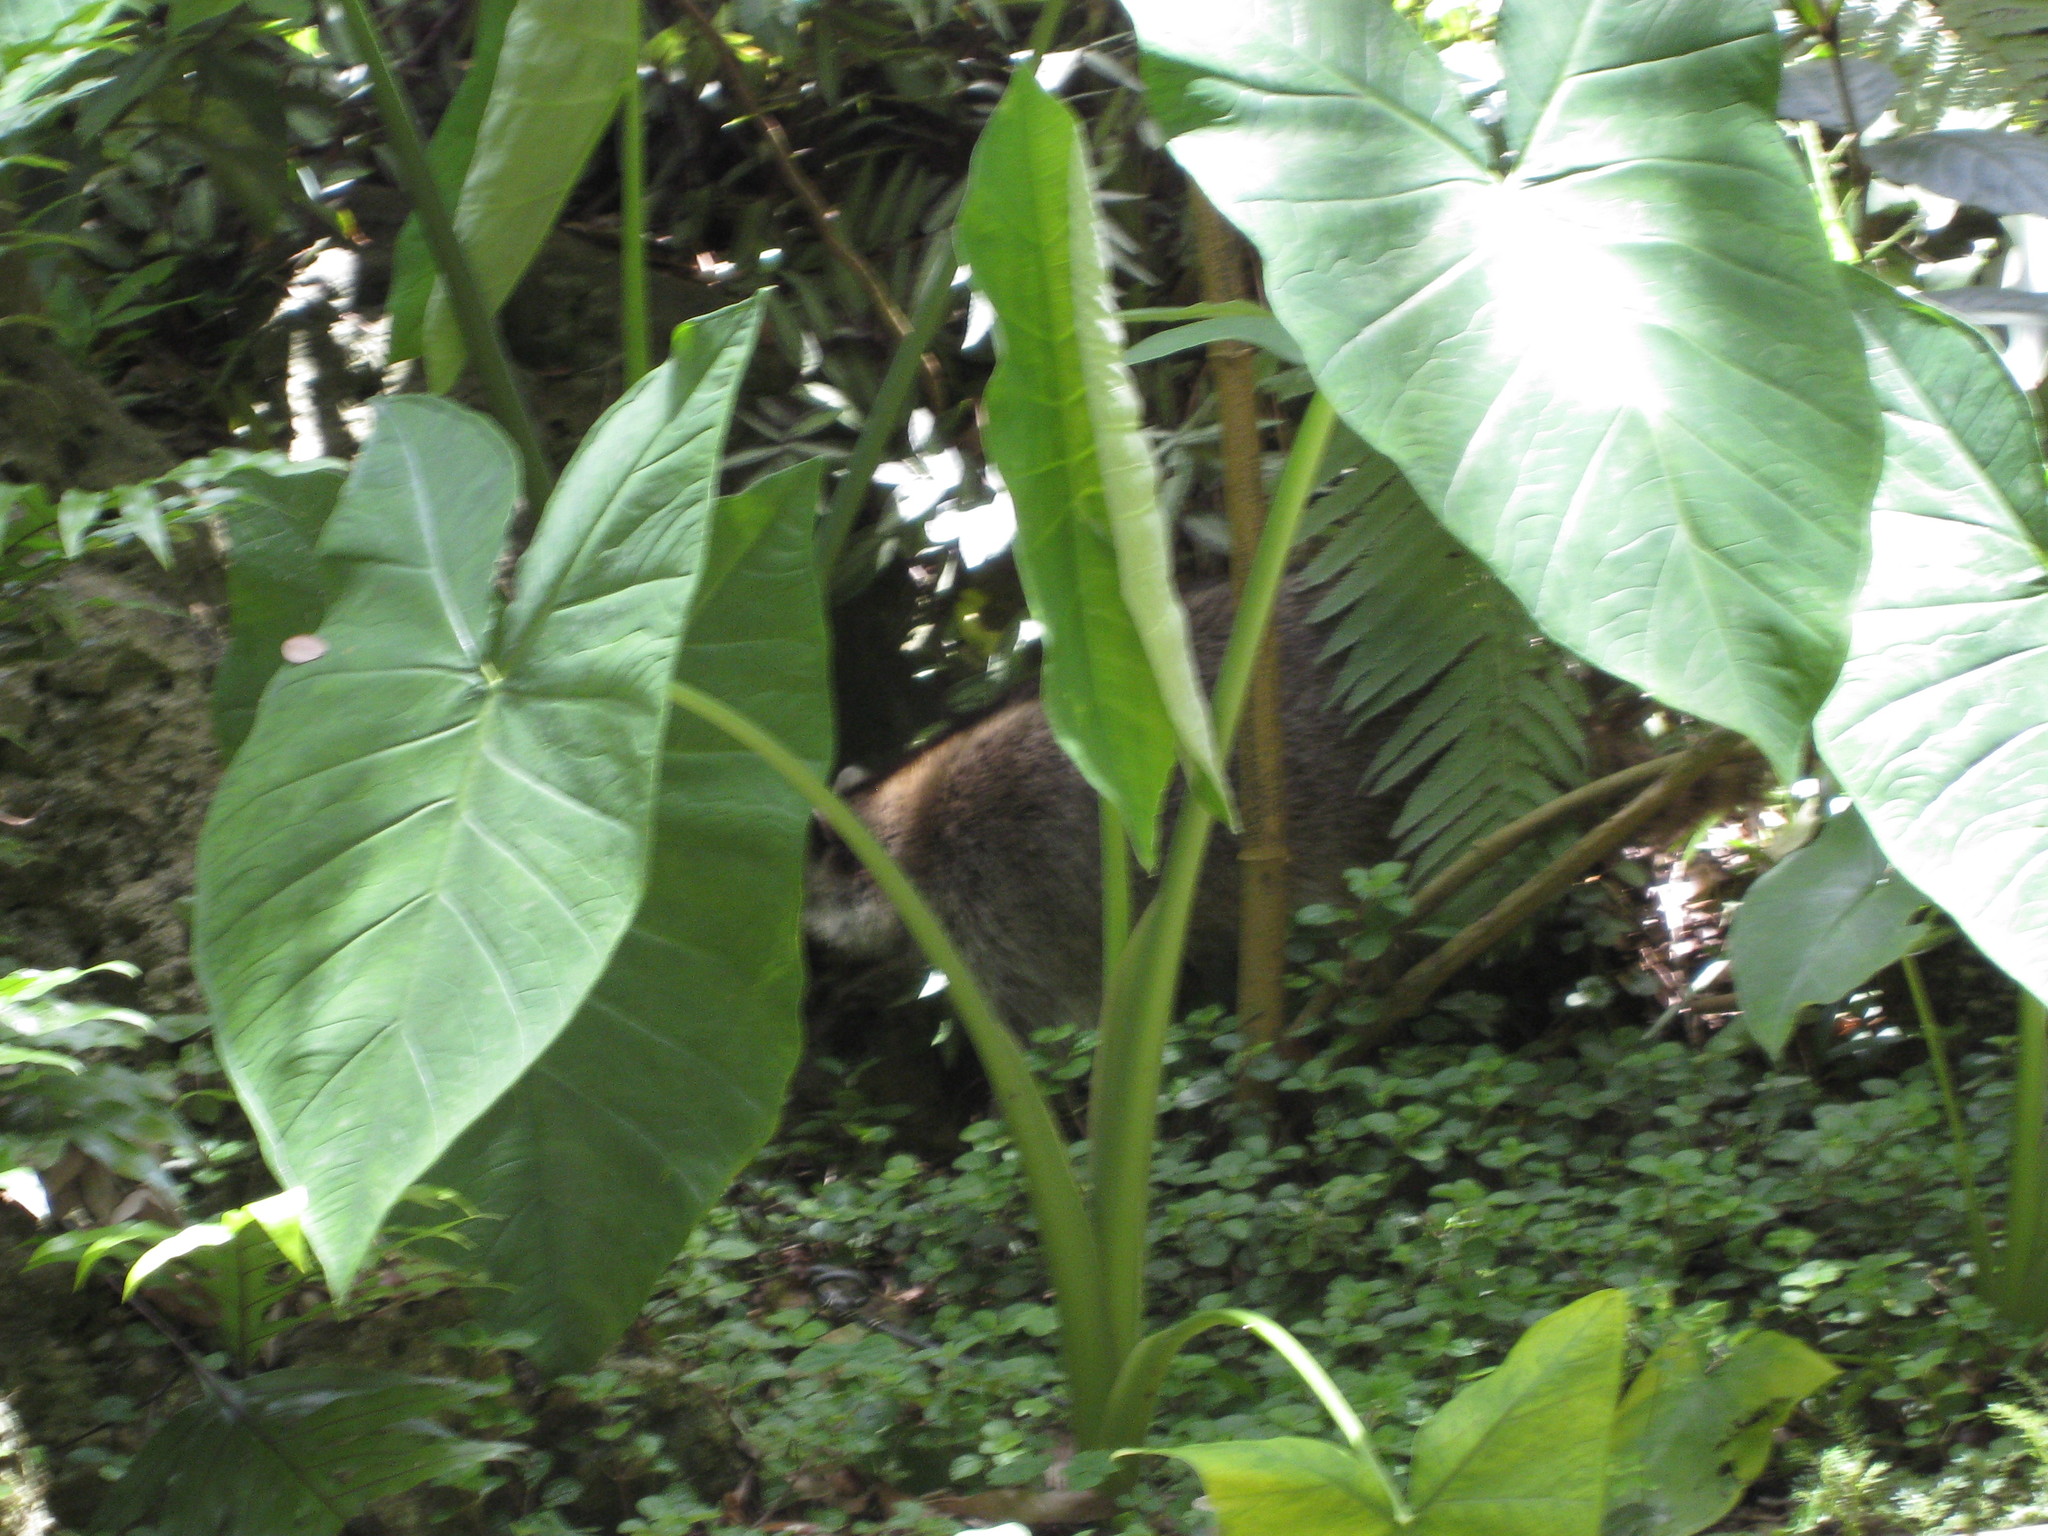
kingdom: Animalia
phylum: Chordata
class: Mammalia
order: Carnivora
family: Procyonidae
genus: Procyon
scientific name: Procyon lotor
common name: Raccoon
